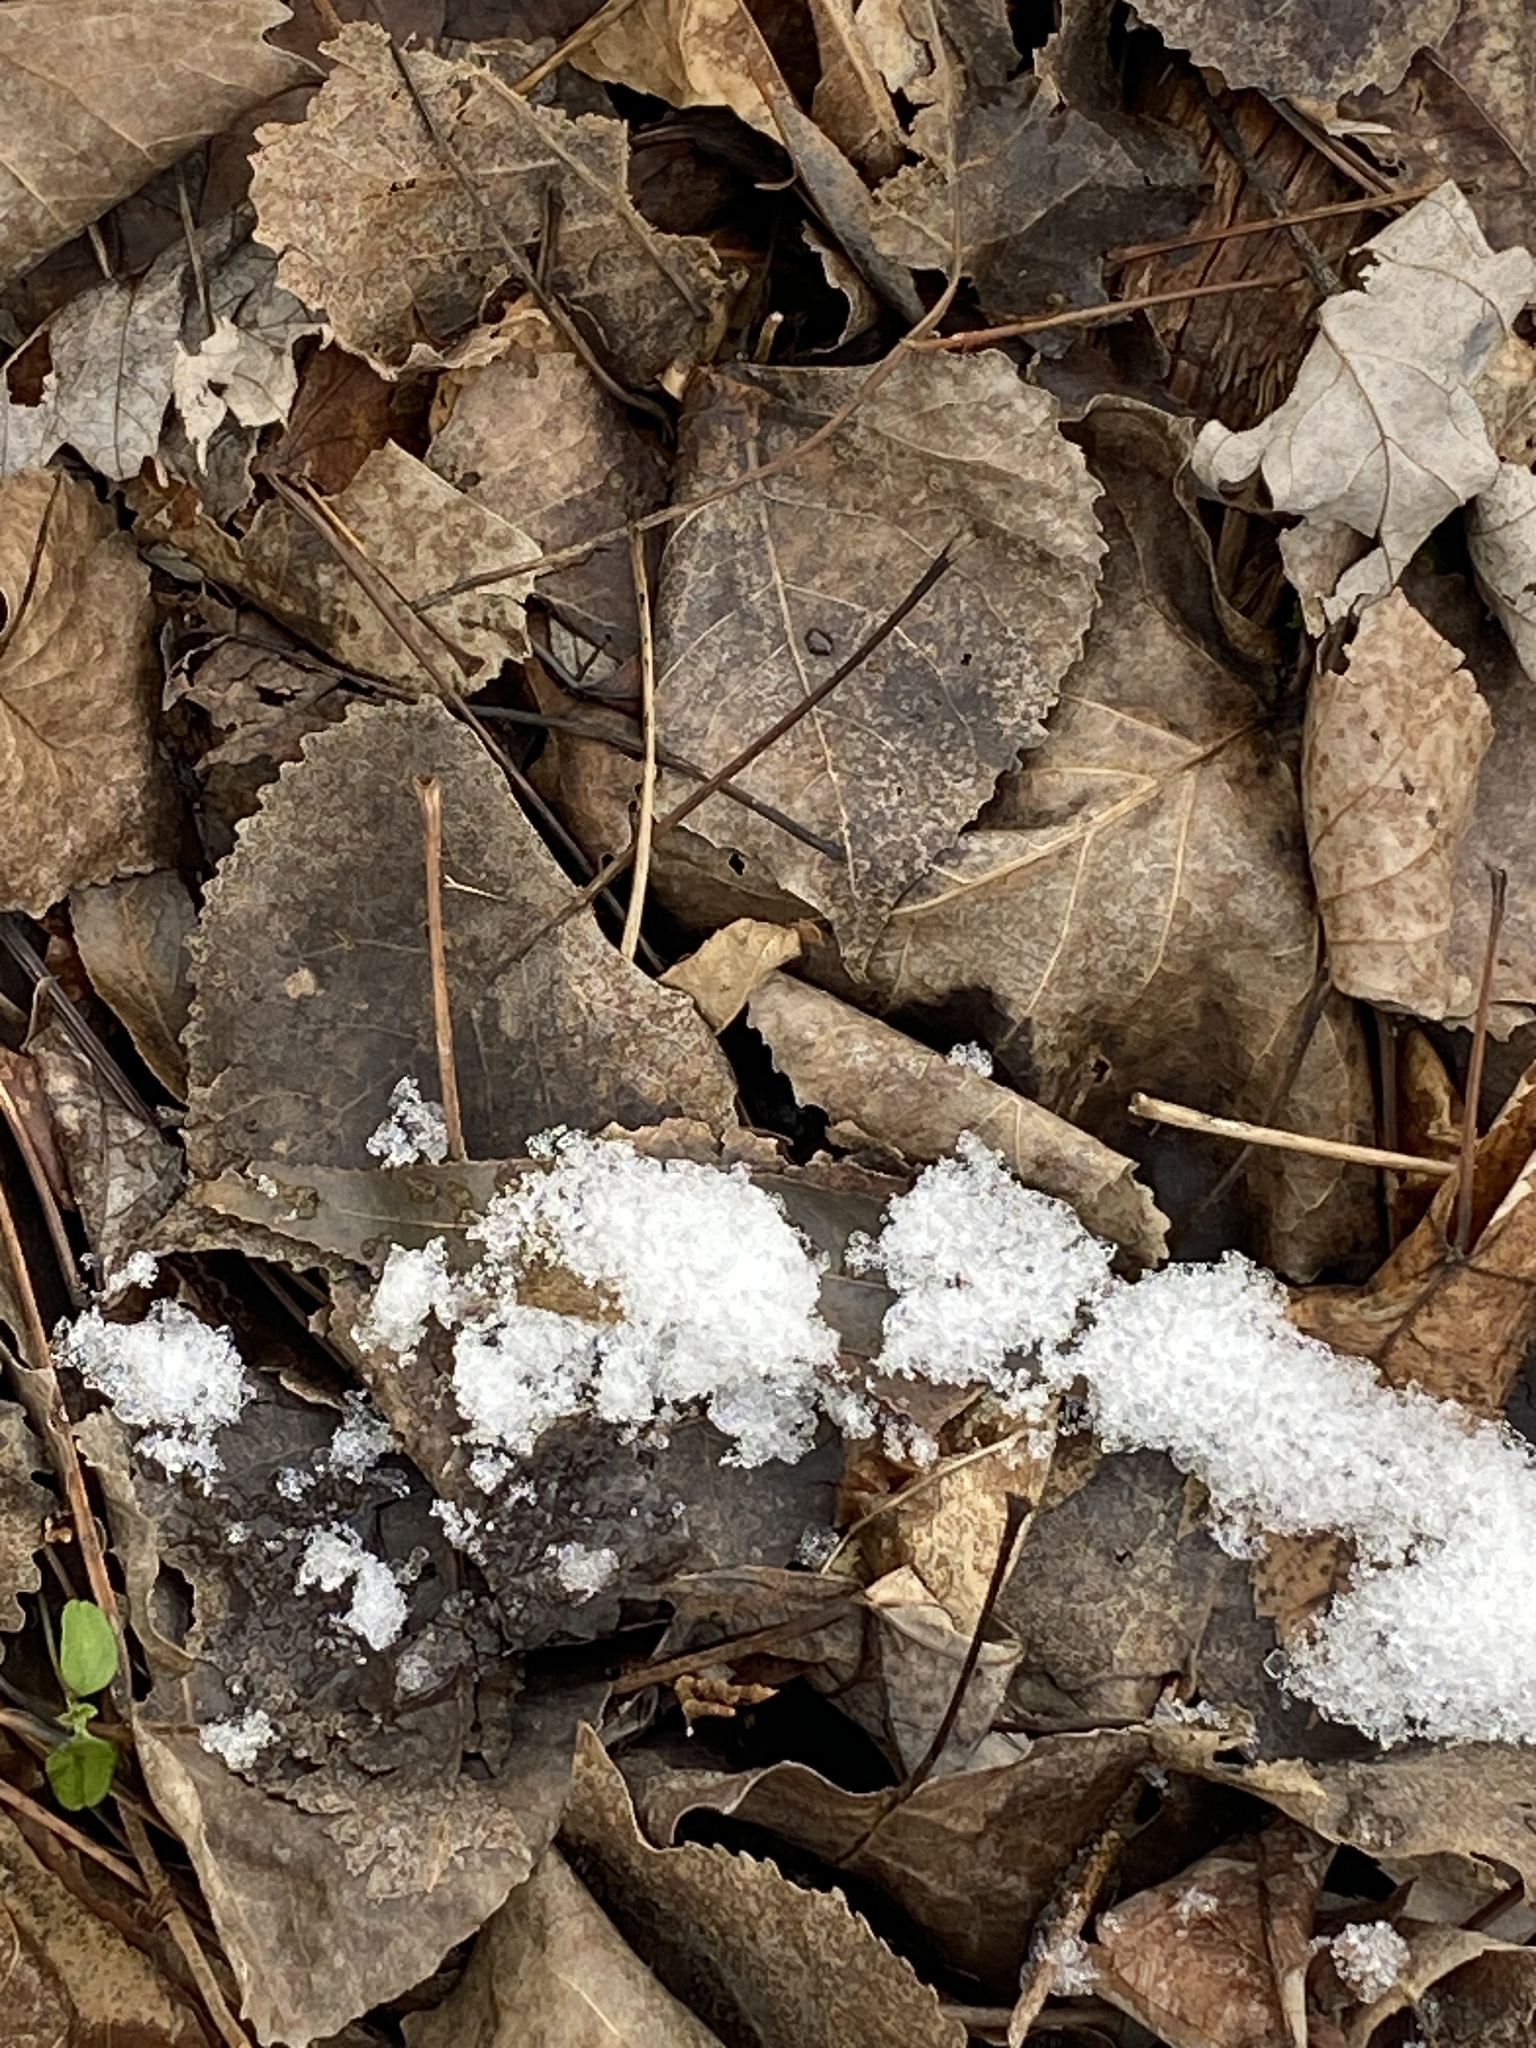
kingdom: Plantae
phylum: Tracheophyta
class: Magnoliopsida
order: Malpighiales
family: Salicaceae
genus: Populus
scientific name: Populus deltoides
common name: Eastern cottonwood
